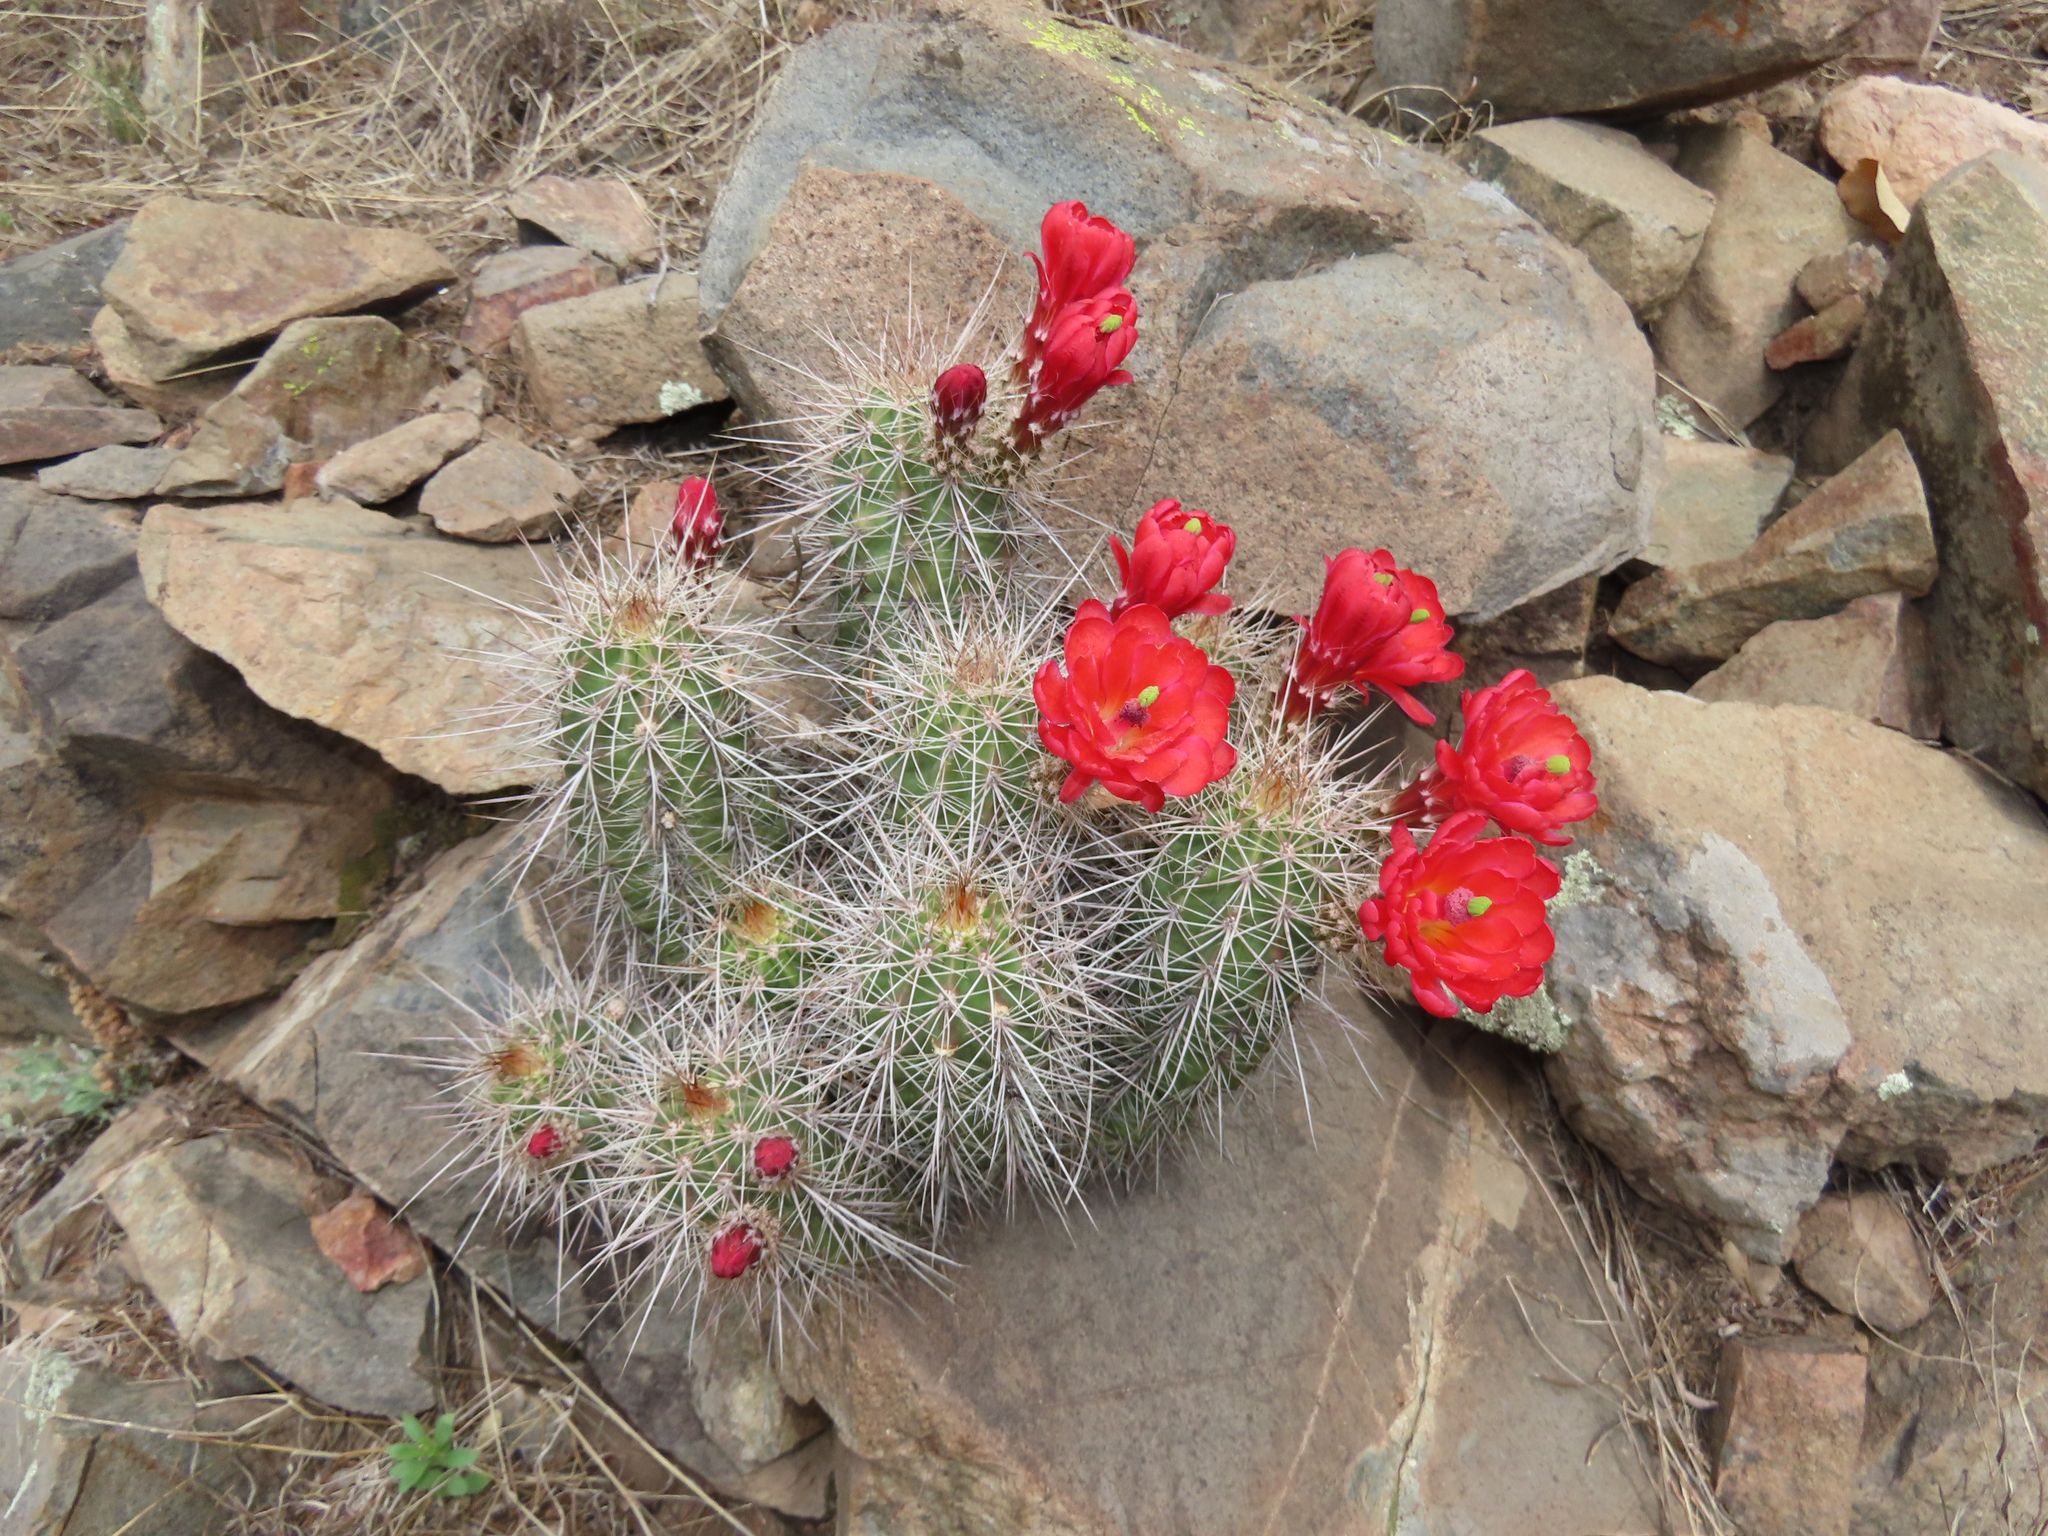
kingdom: Plantae
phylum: Tracheophyta
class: Magnoliopsida
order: Caryophyllales
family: Cactaceae
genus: Echinocereus
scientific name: Echinocereus coccineus
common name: Scarlet hedgehog cactus
